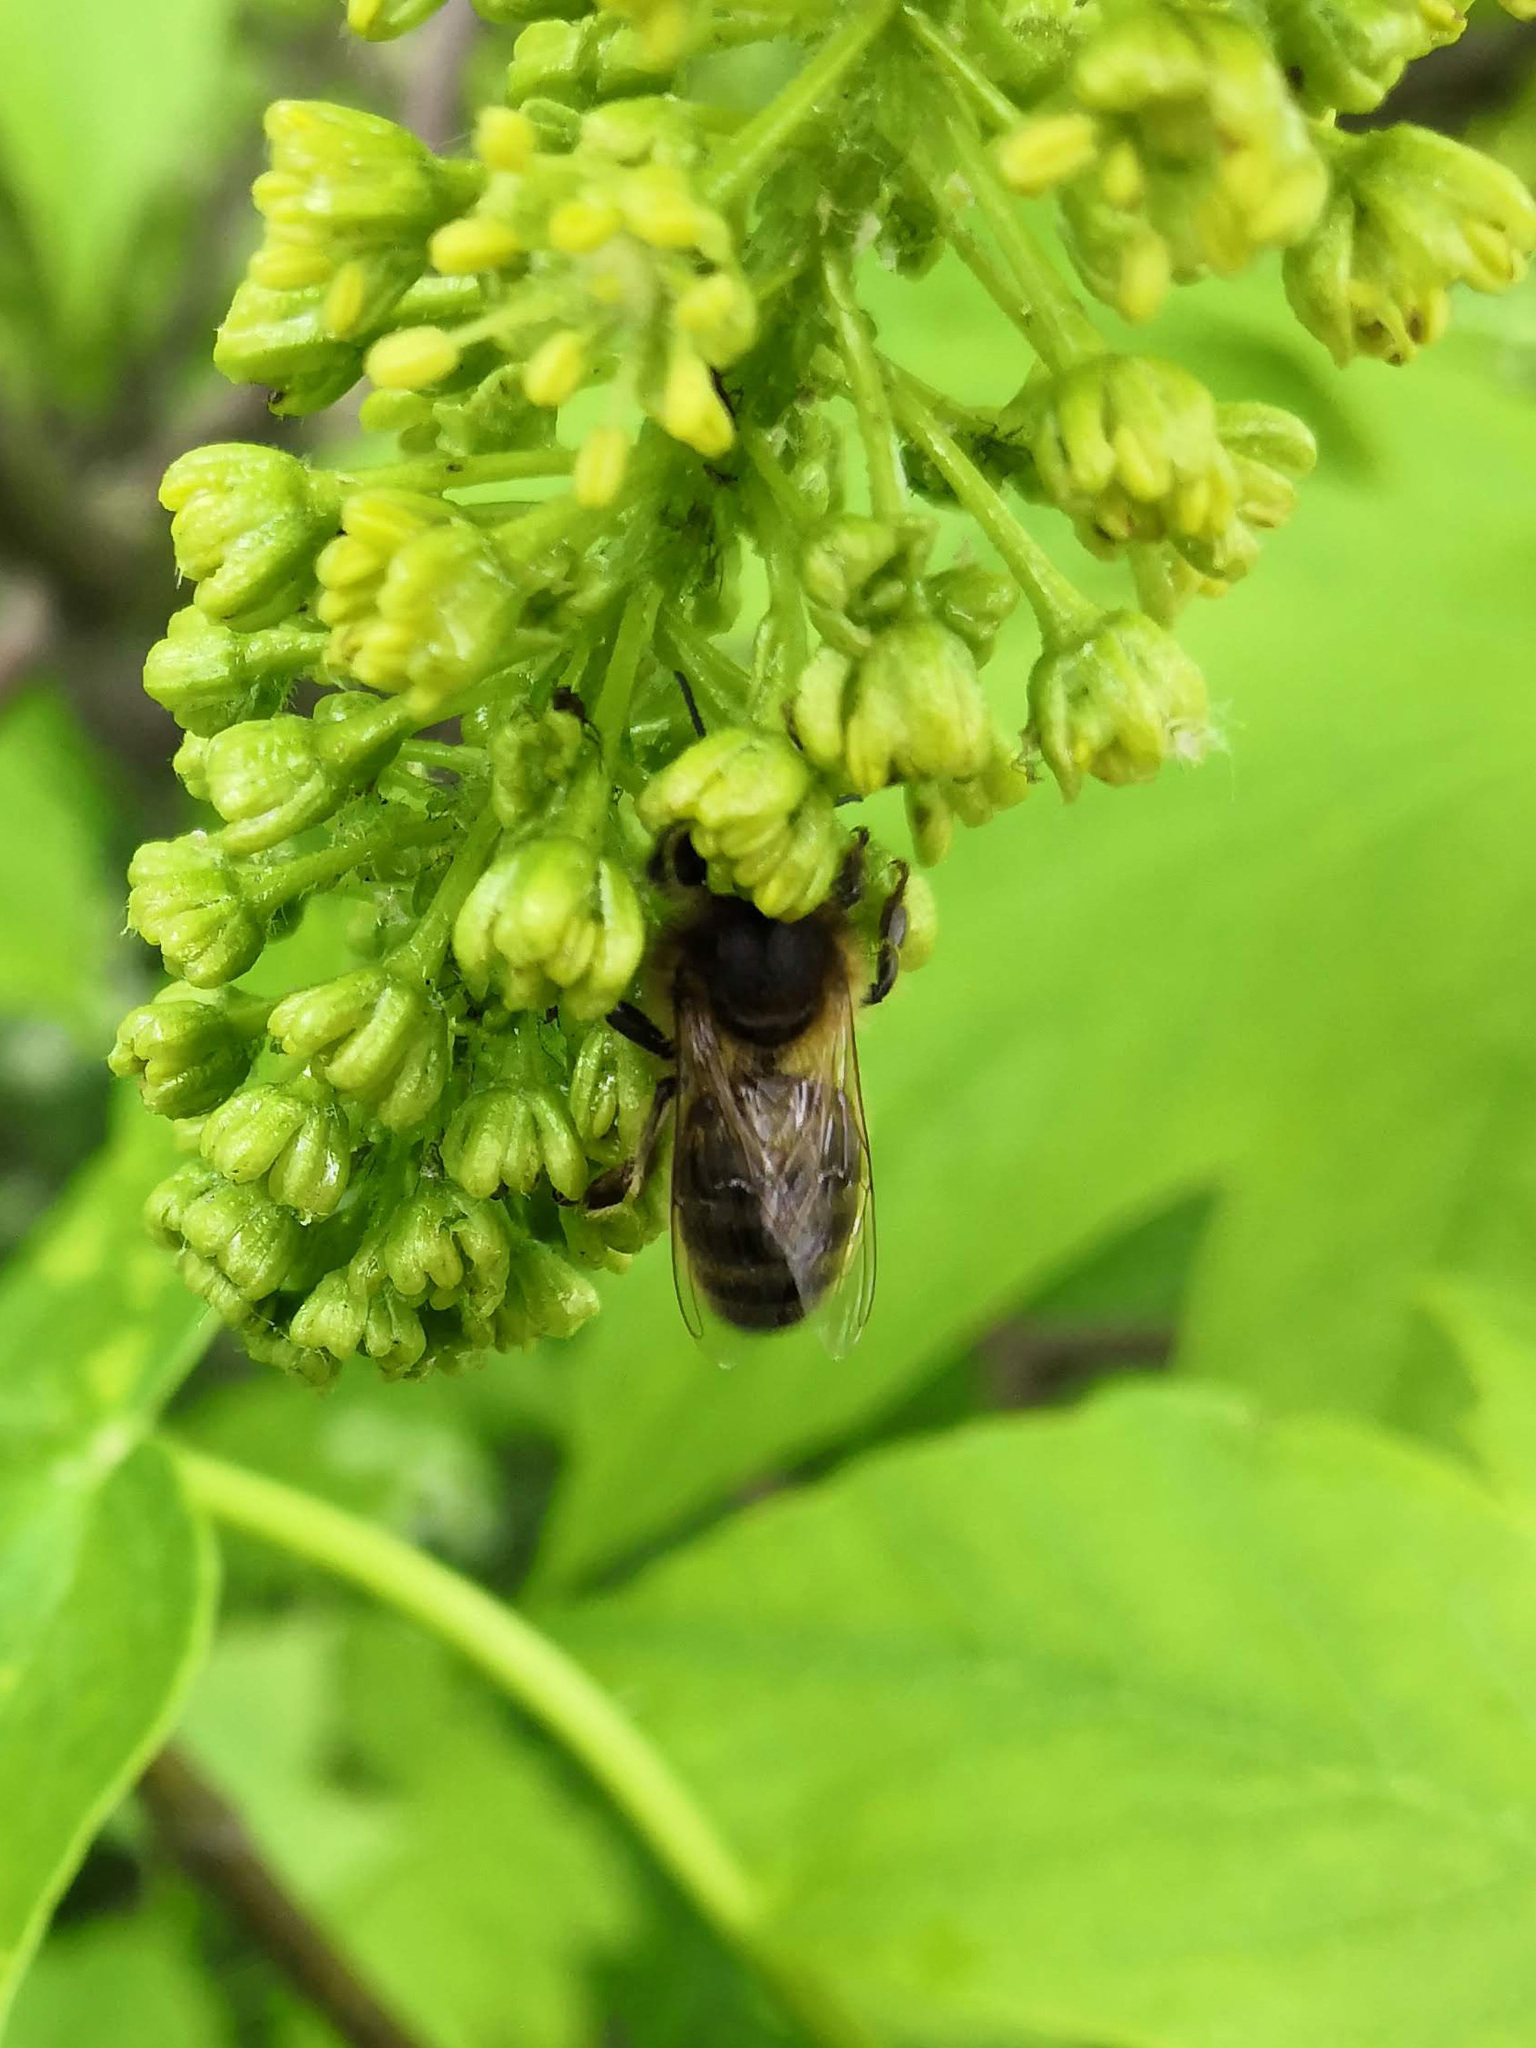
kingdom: Animalia
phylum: Arthropoda
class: Insecta
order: Hymenoptera
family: Apidae
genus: Apis
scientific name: Apis mellifera
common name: Honey bee
